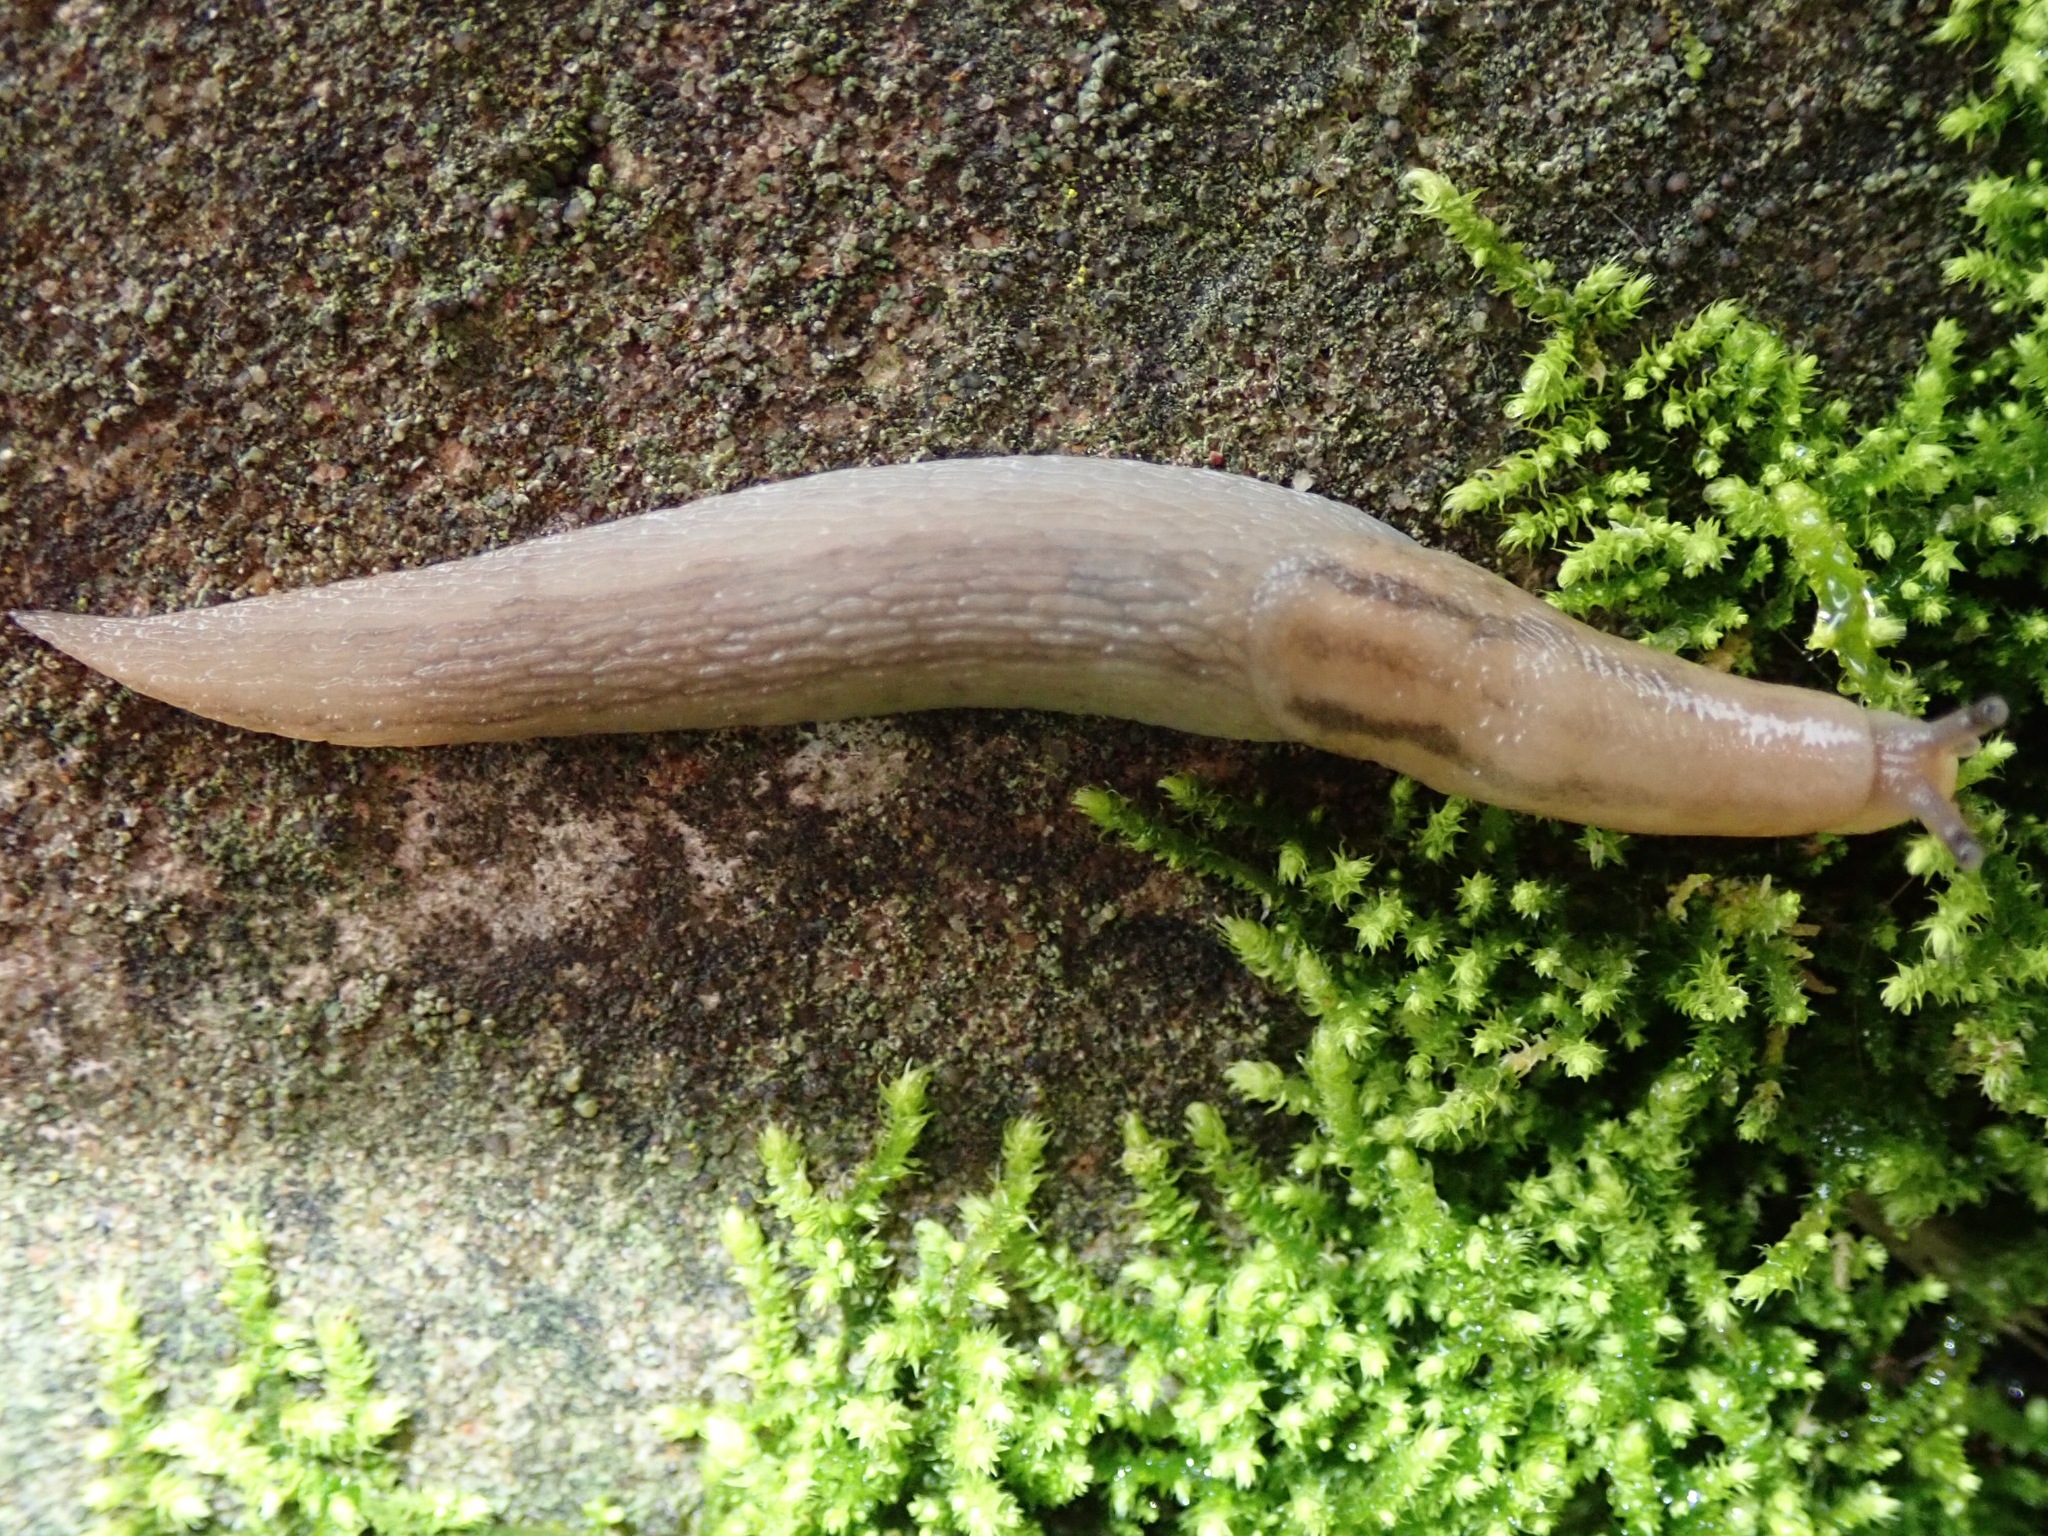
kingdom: Animalia
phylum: Mollusca
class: Gastropoda
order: Stylommatophora
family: Limacidae
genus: Ambigolimax
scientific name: Ambigolimax
